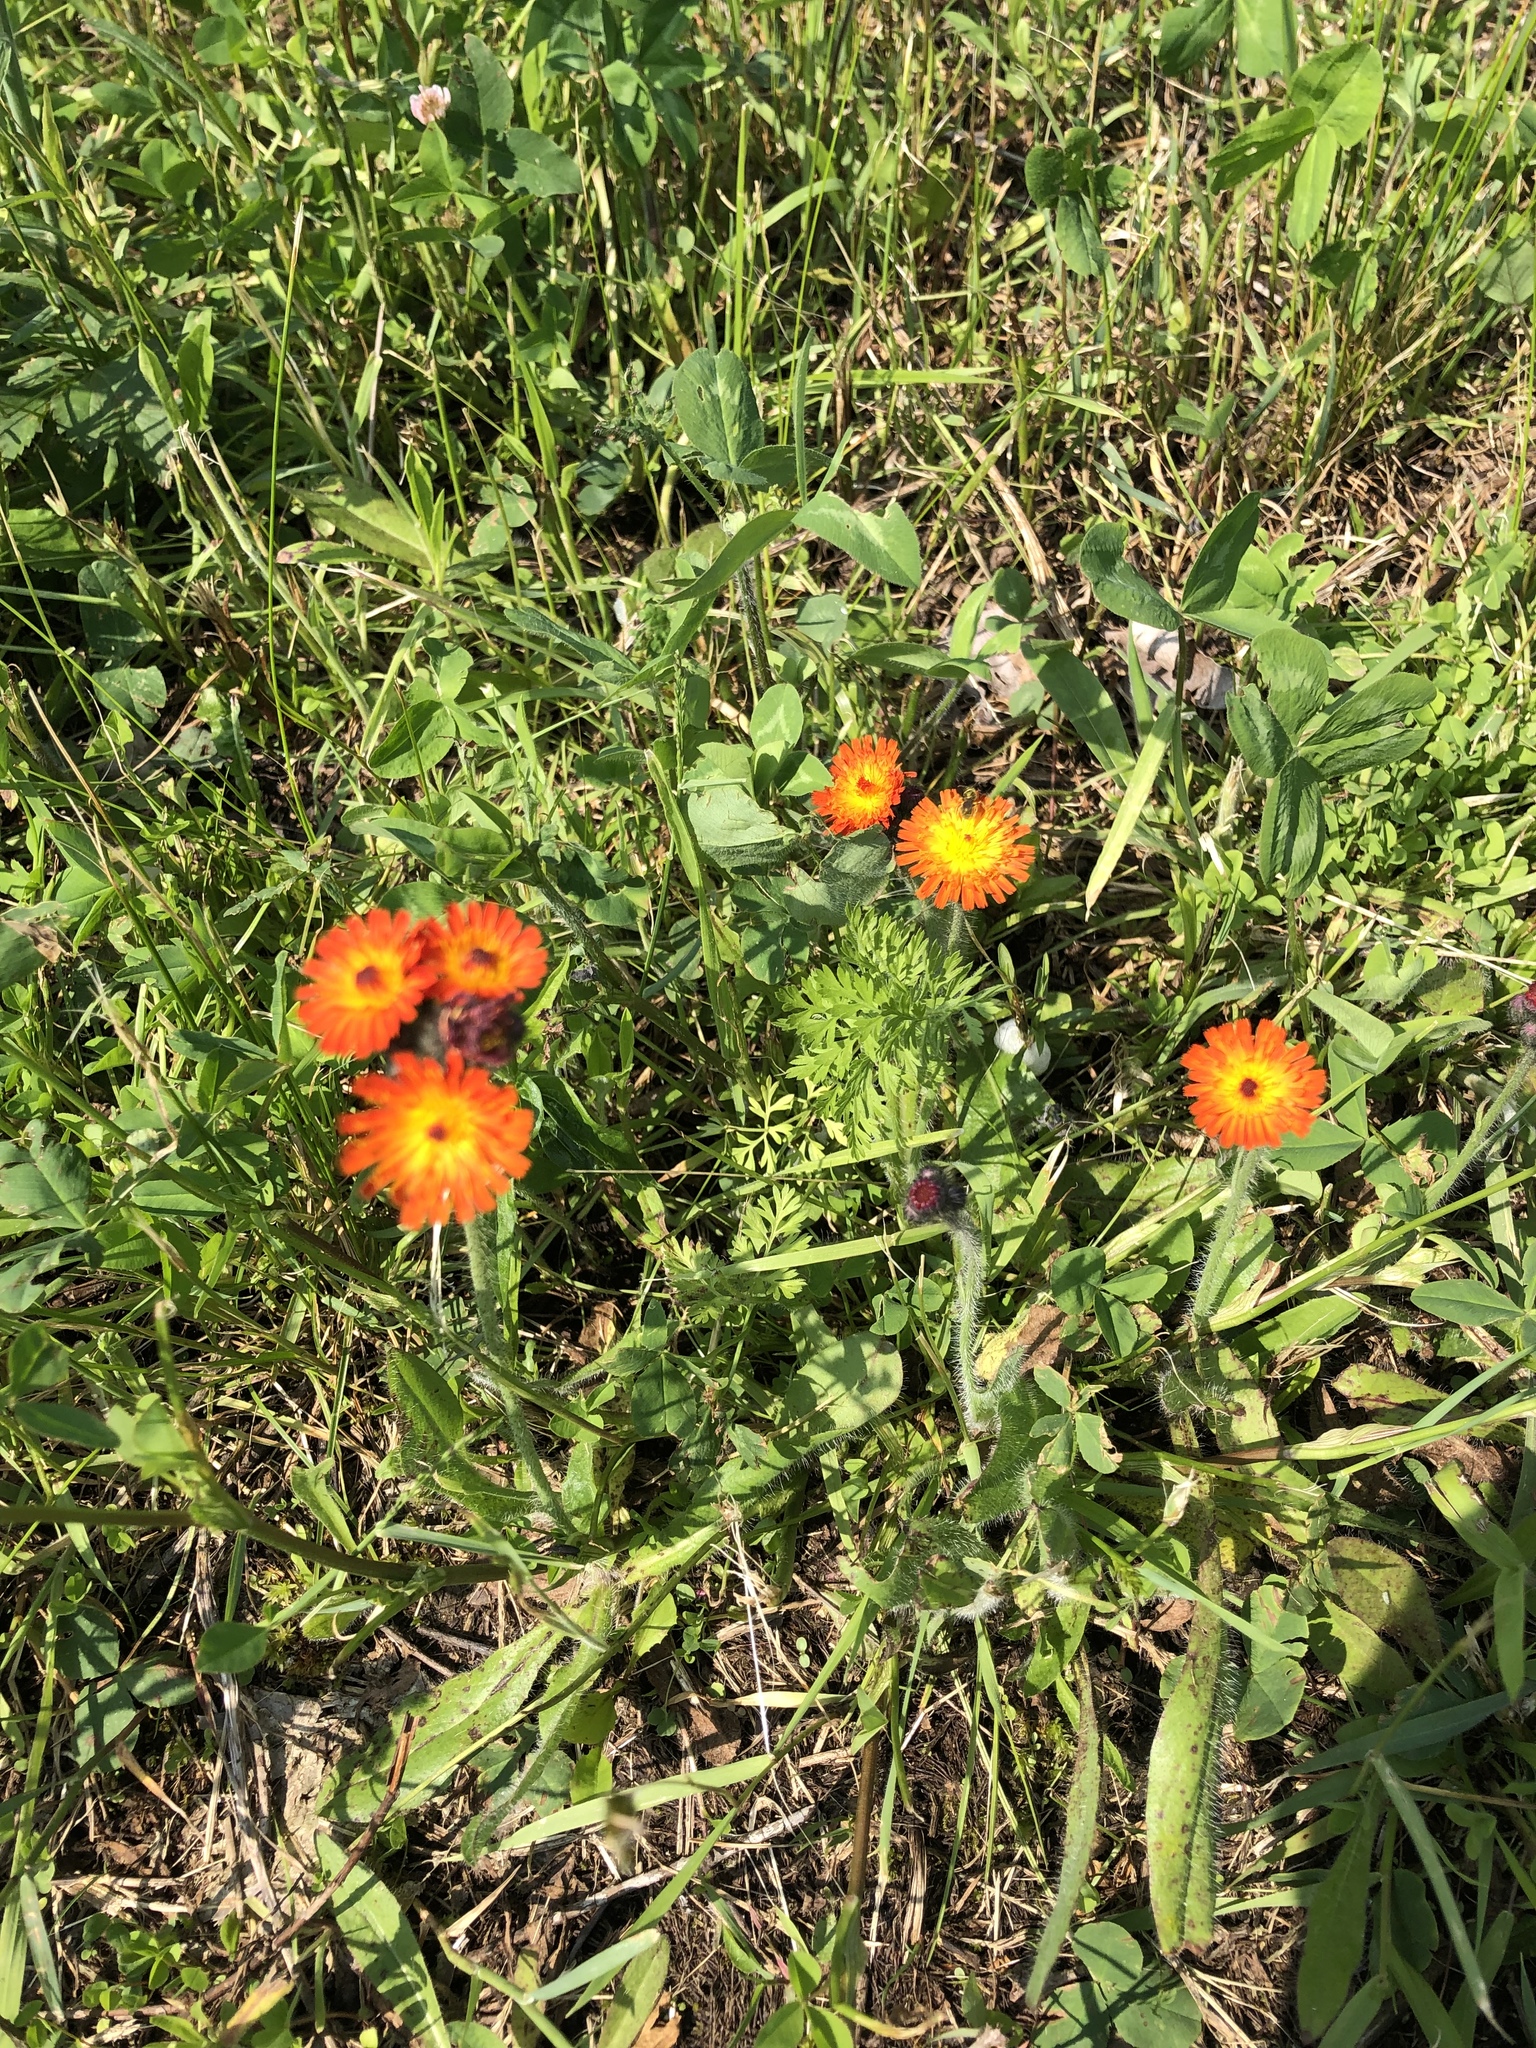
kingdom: Plantae
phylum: Tracheophyta
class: Magnoliopsida
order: Asterales
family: Asteraceae
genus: Pilosella
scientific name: Pilosella aurantiaca
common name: Fox-and-cubs
